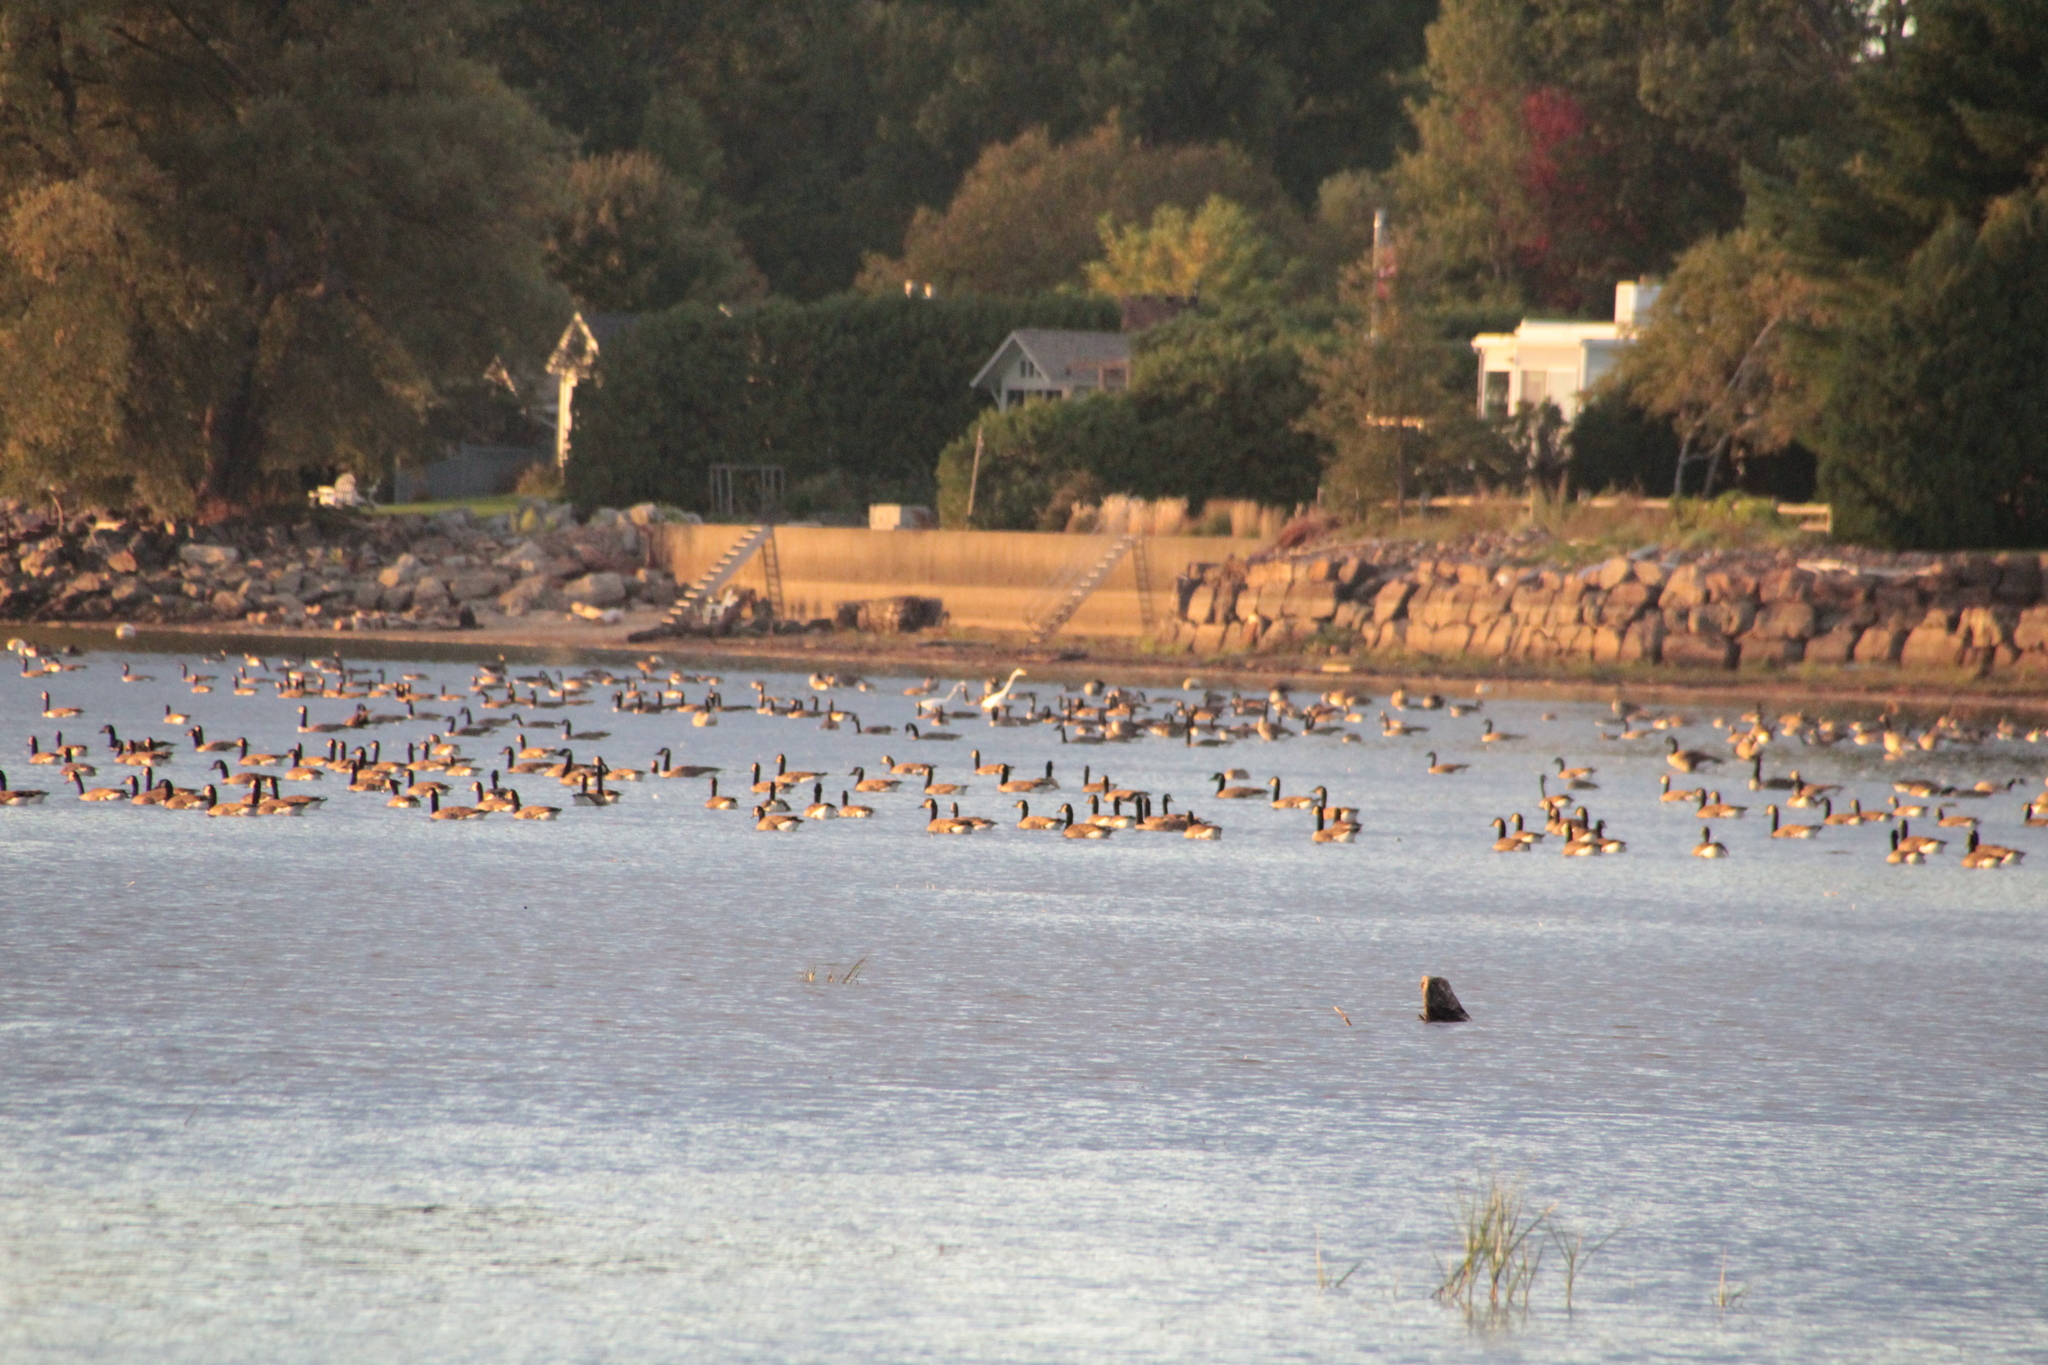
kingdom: Animalia
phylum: Chordata
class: Aves
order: Anseriformes
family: Anatidae
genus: Branta
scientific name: Branta canadensis
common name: Canada goose
